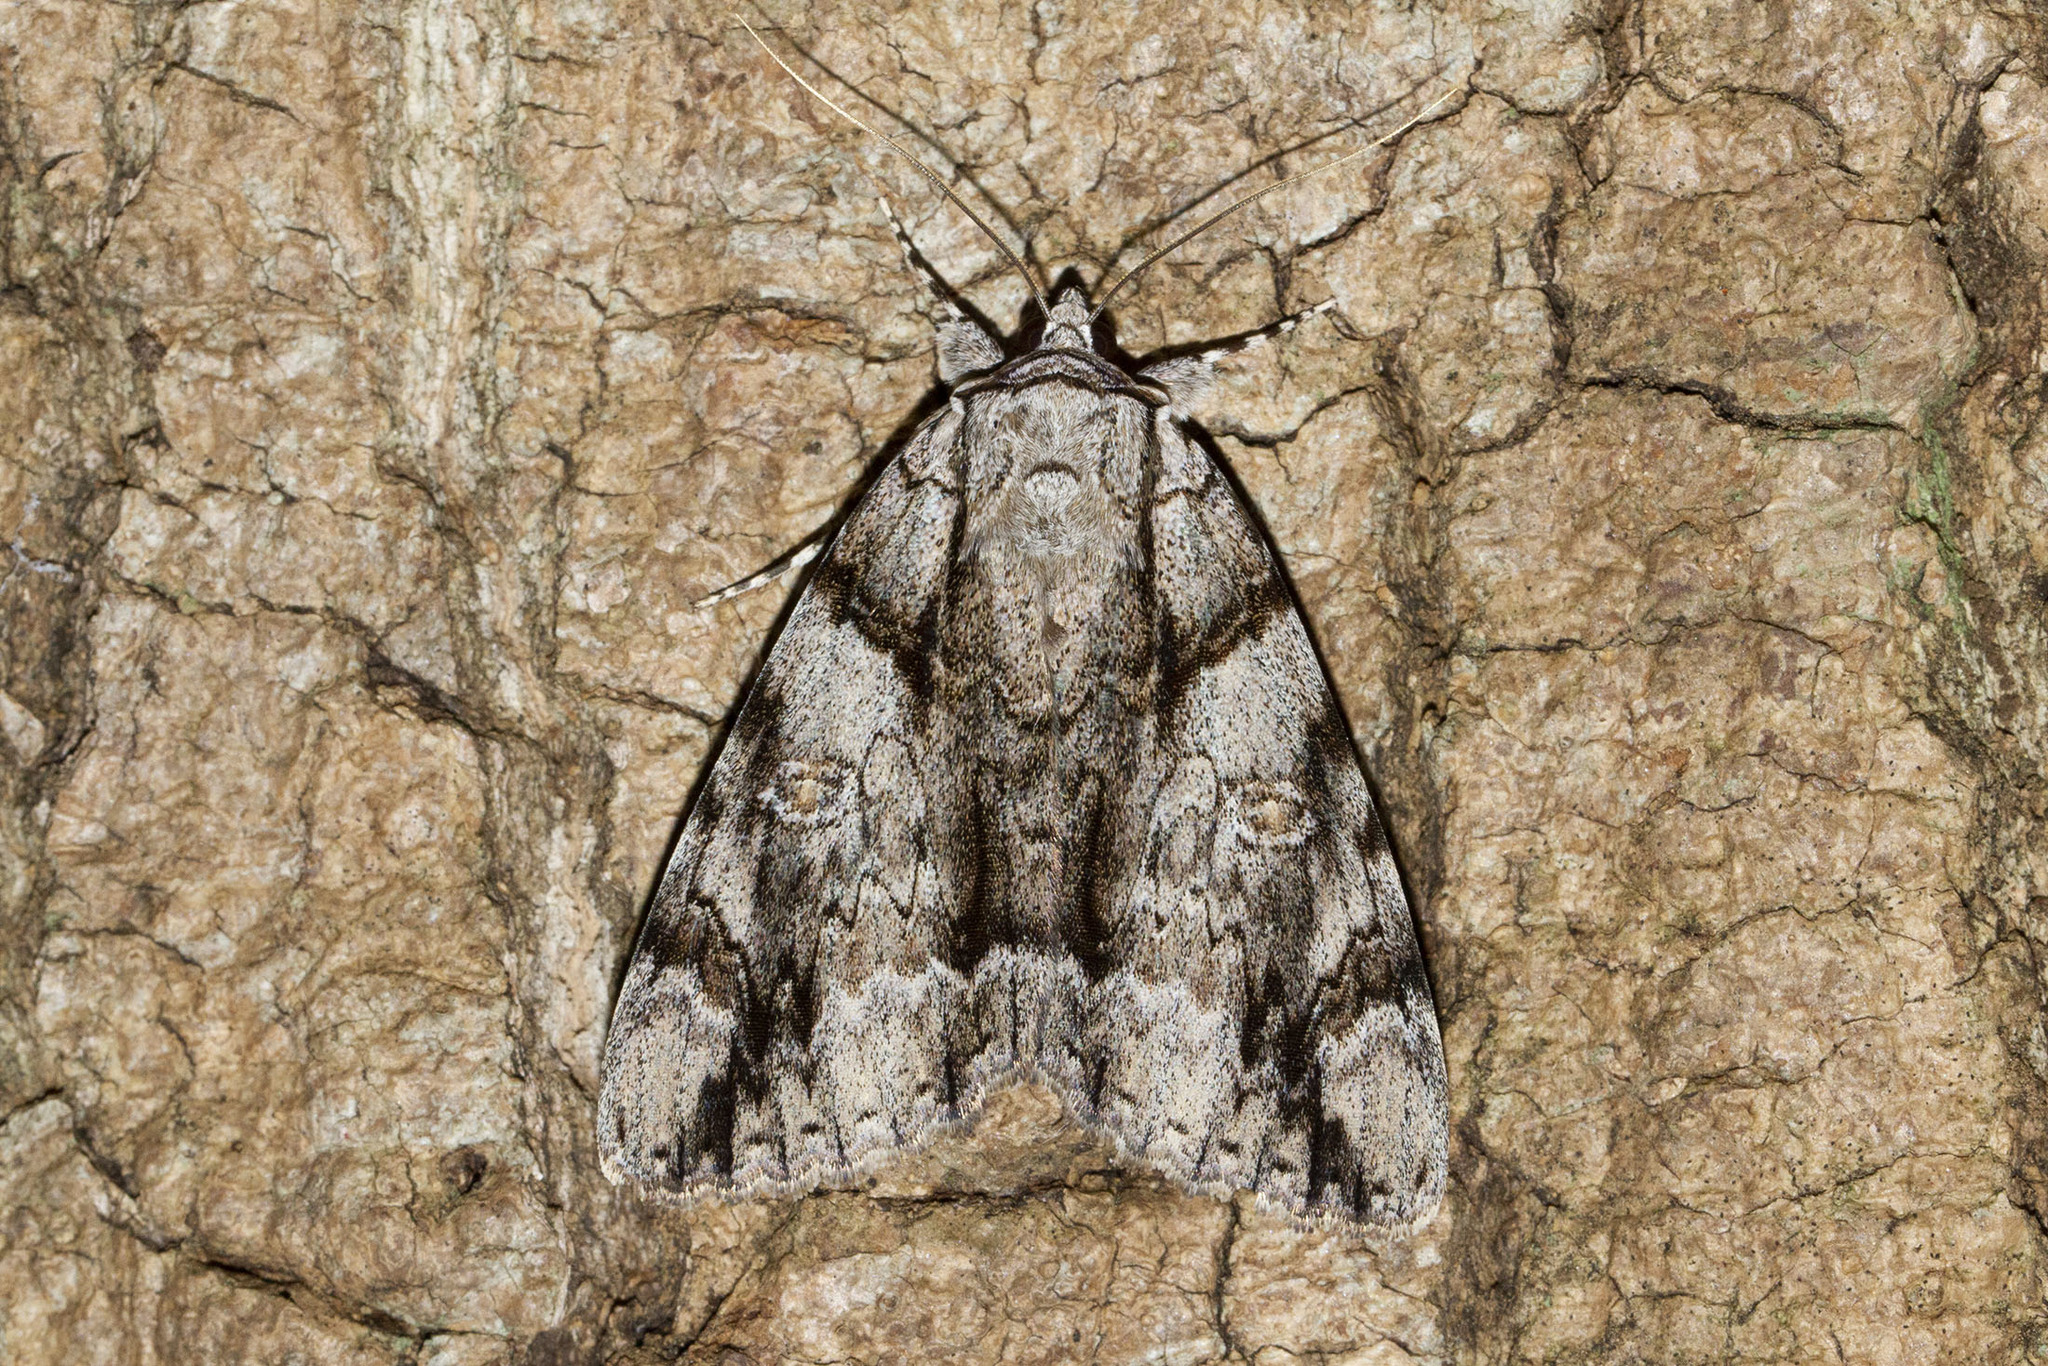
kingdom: Animalia
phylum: Arthropoda
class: Insecta
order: Lepidoptera
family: Erebidae
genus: Catocala
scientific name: Catocala vidua
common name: The widow
